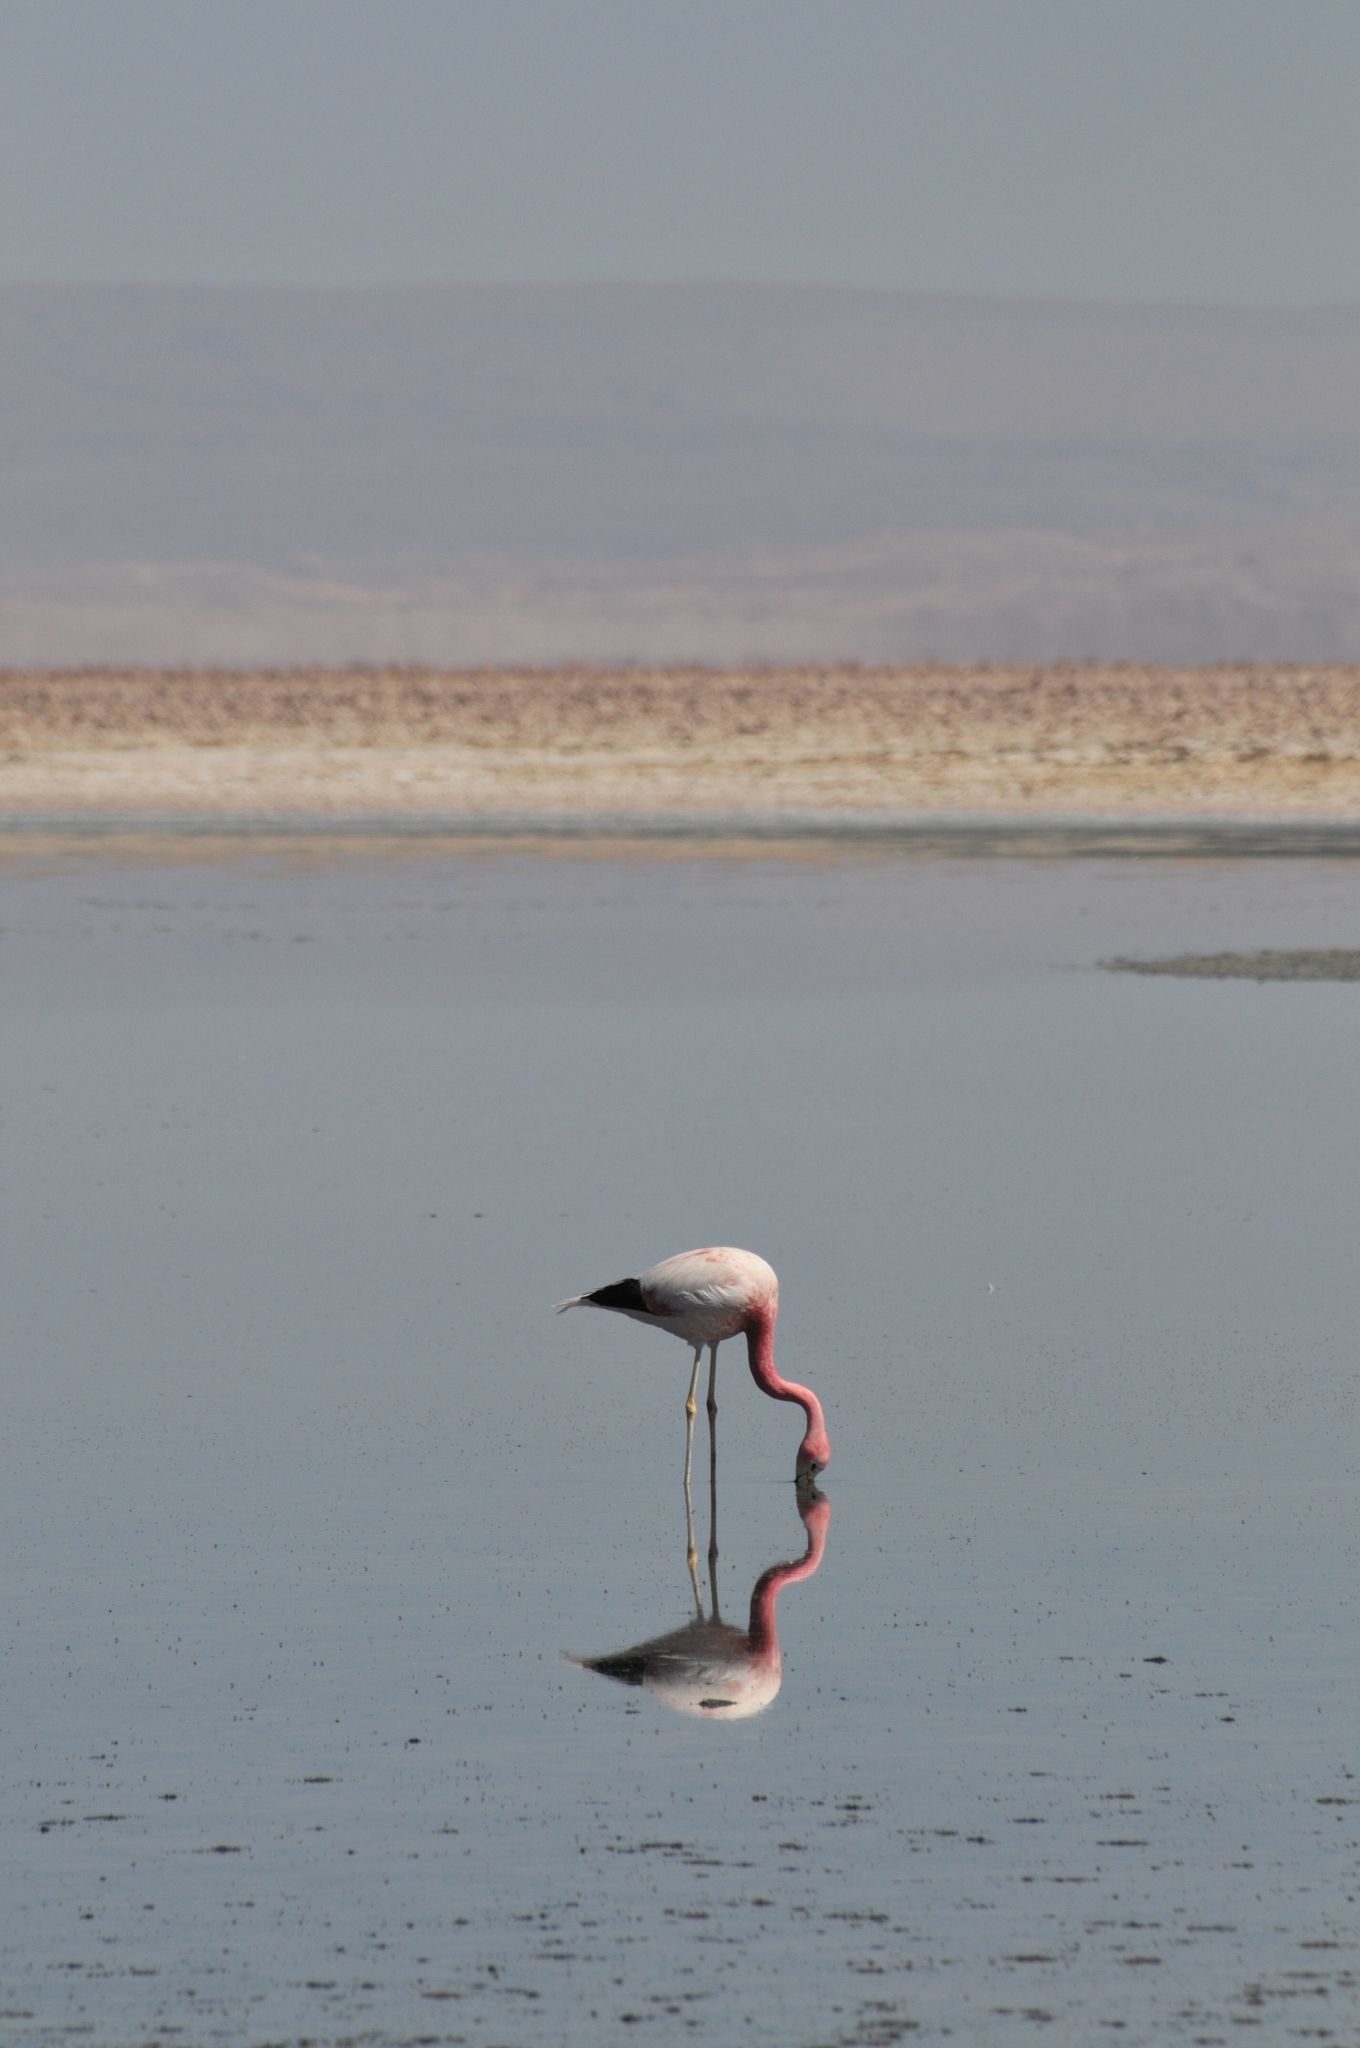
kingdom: Animalia
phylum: Chordata
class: Aves
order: Phoenicopteriformes
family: Phoenicopteridae
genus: Phoenicoparrus
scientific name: Phoenicoparrus andinus
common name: Andean flamingo
